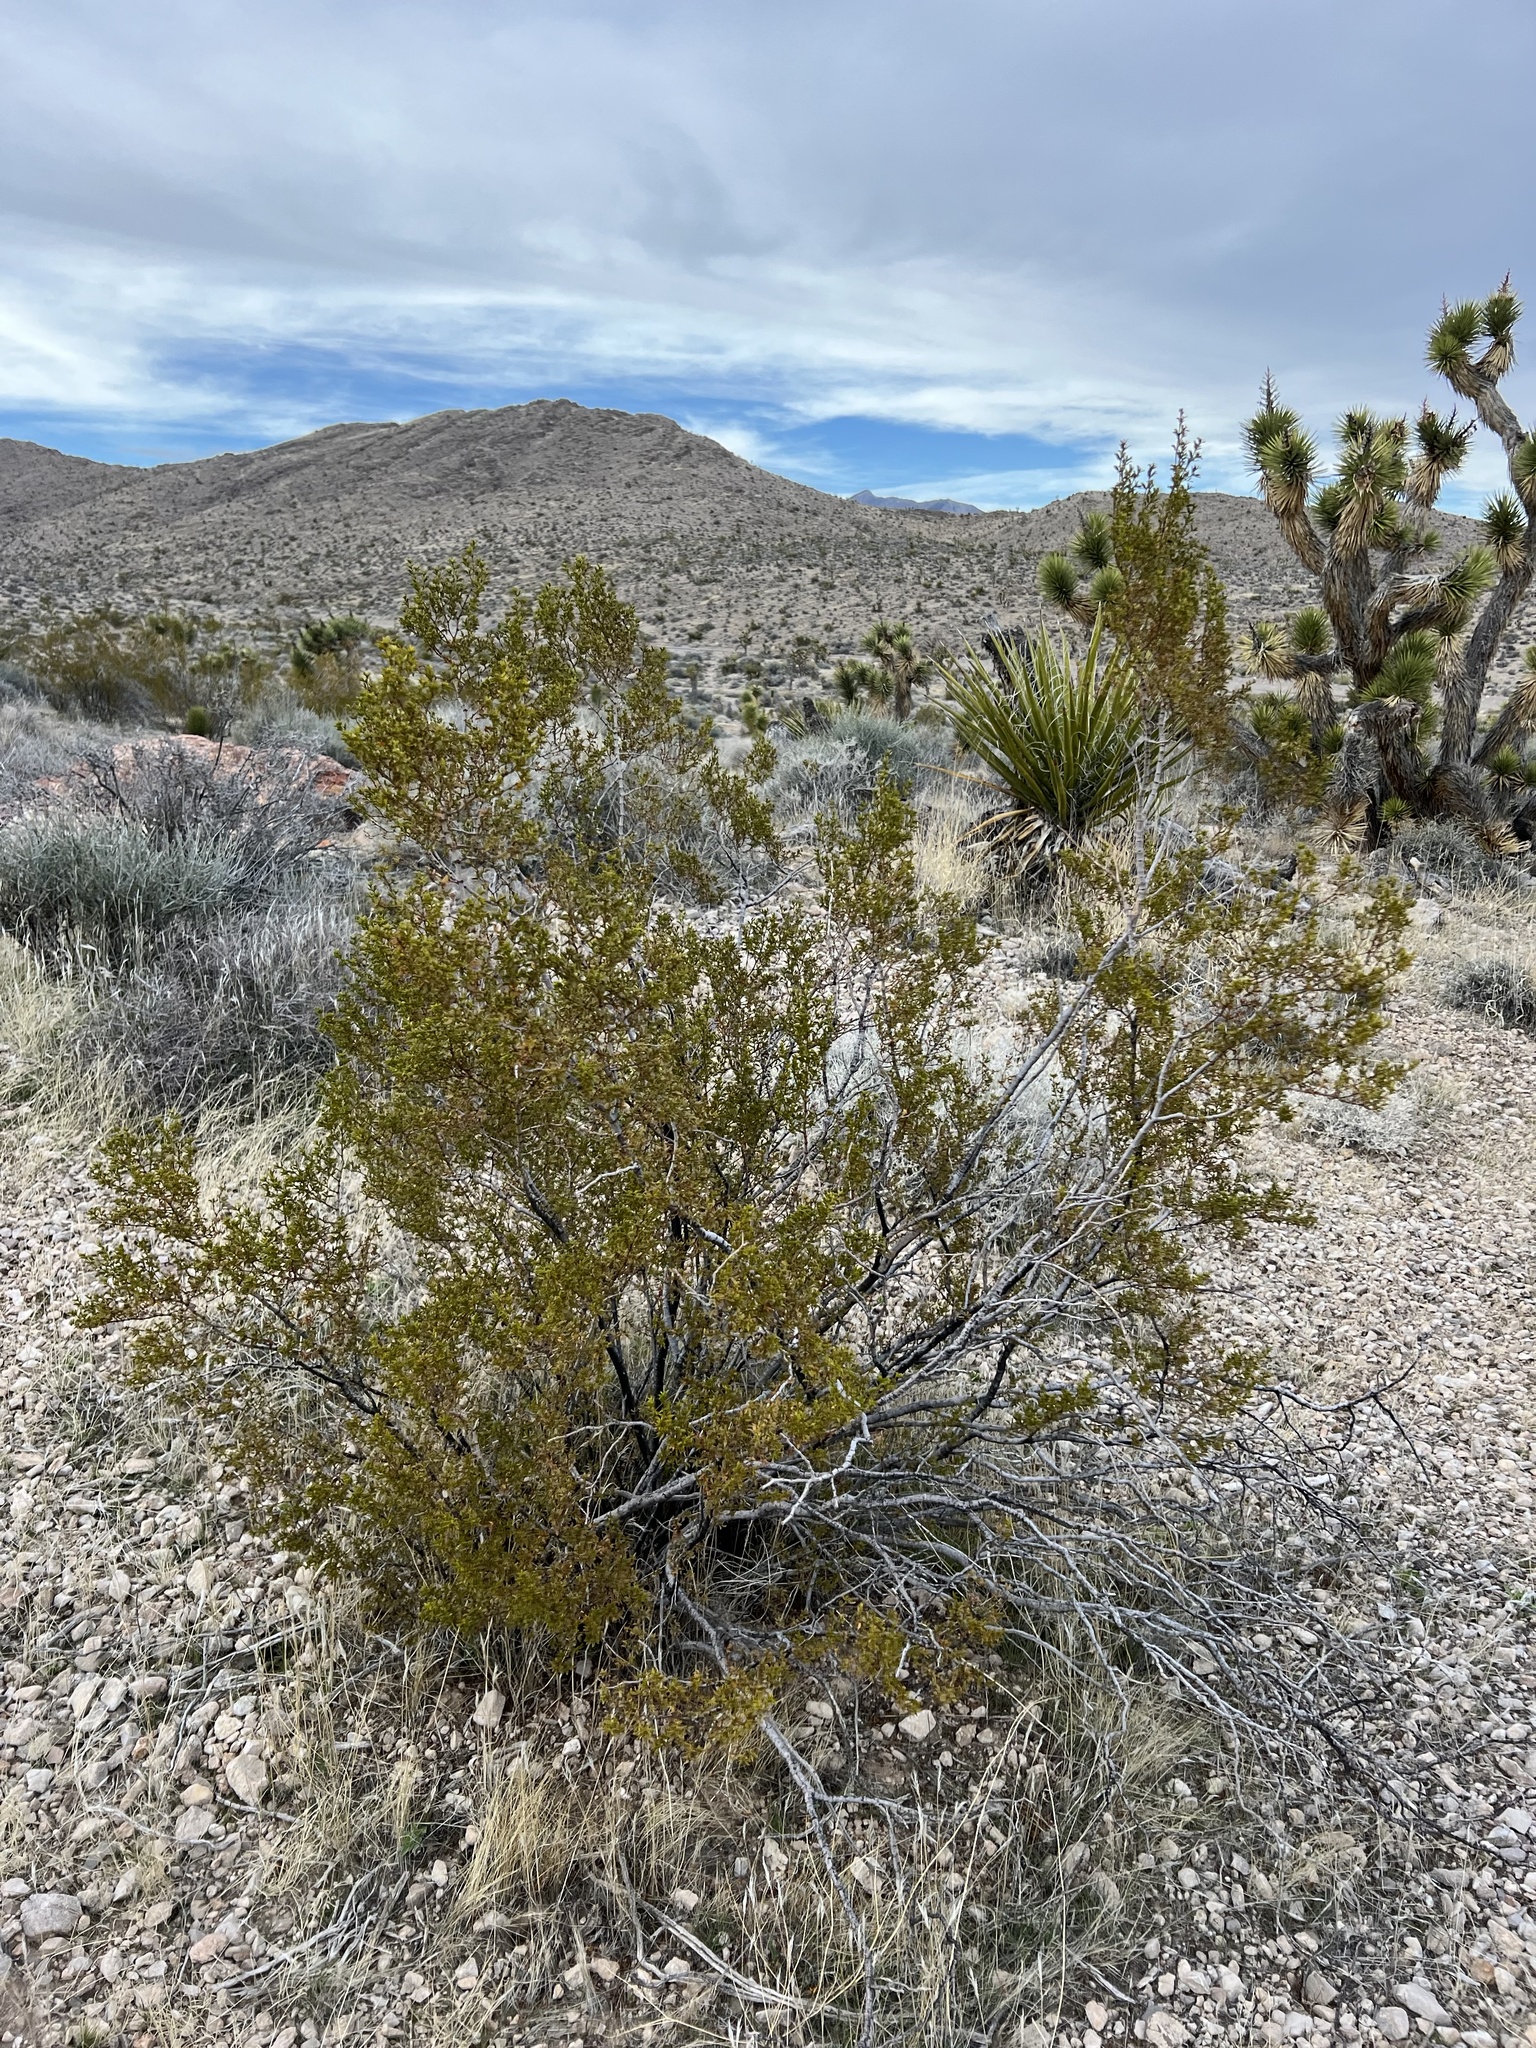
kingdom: Plantae
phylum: Tracheophyta
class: Magnoliopsida
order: Zygophyllales
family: Zygophyllaceae
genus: Larrea
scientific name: Larrea tridentata
